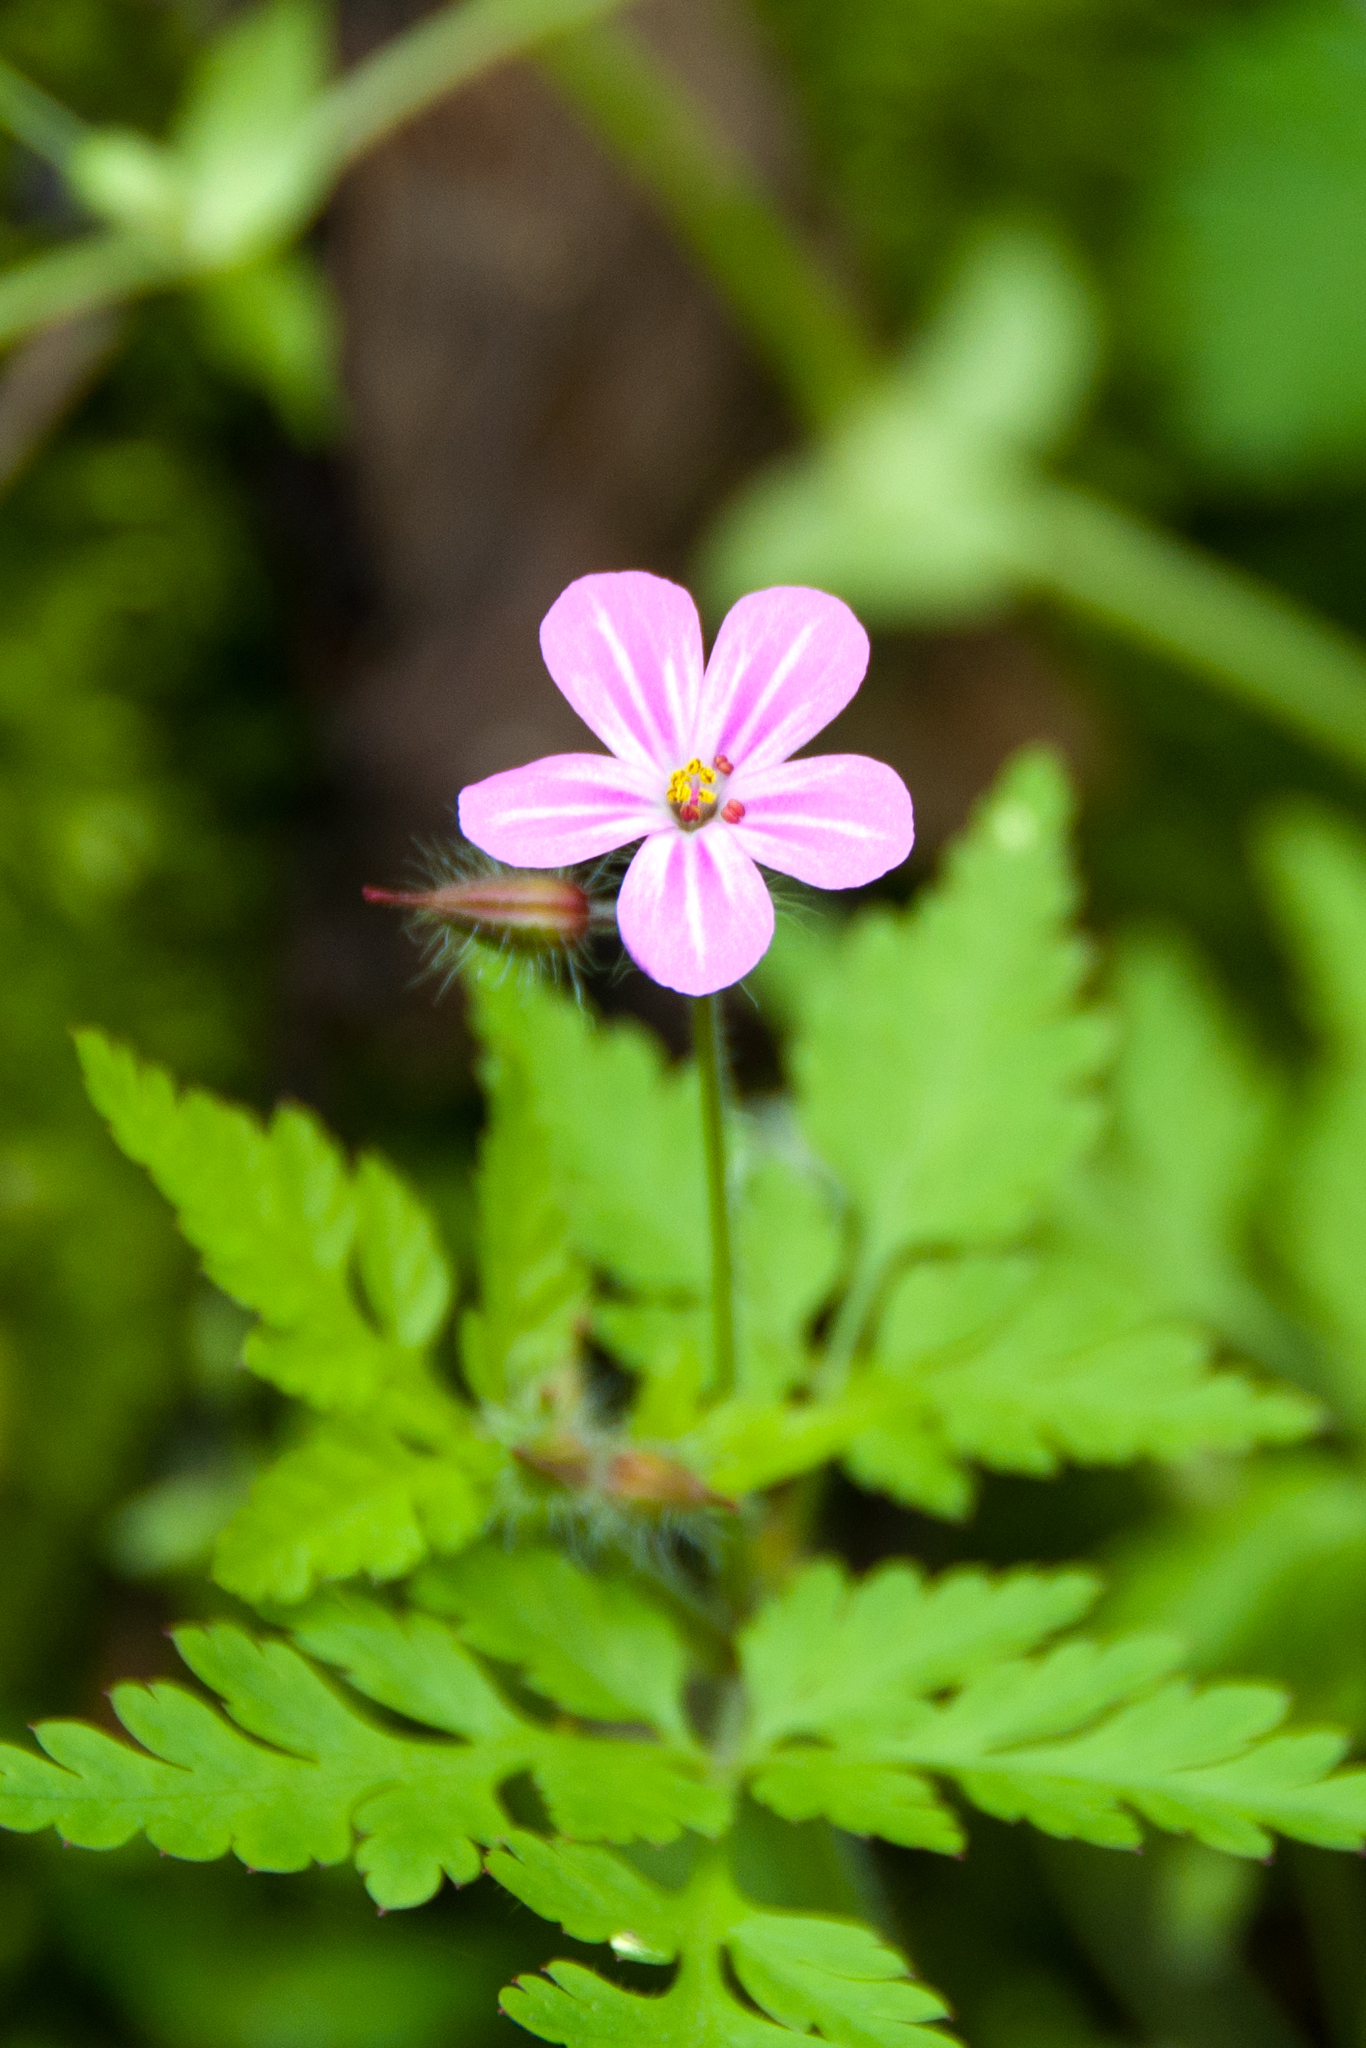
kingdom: Plantae
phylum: Tracheophyta
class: Magnoliopsida
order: Geraniales
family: Geraniaceae
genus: Geranium
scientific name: Geranium robertianum
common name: Herb-robert
